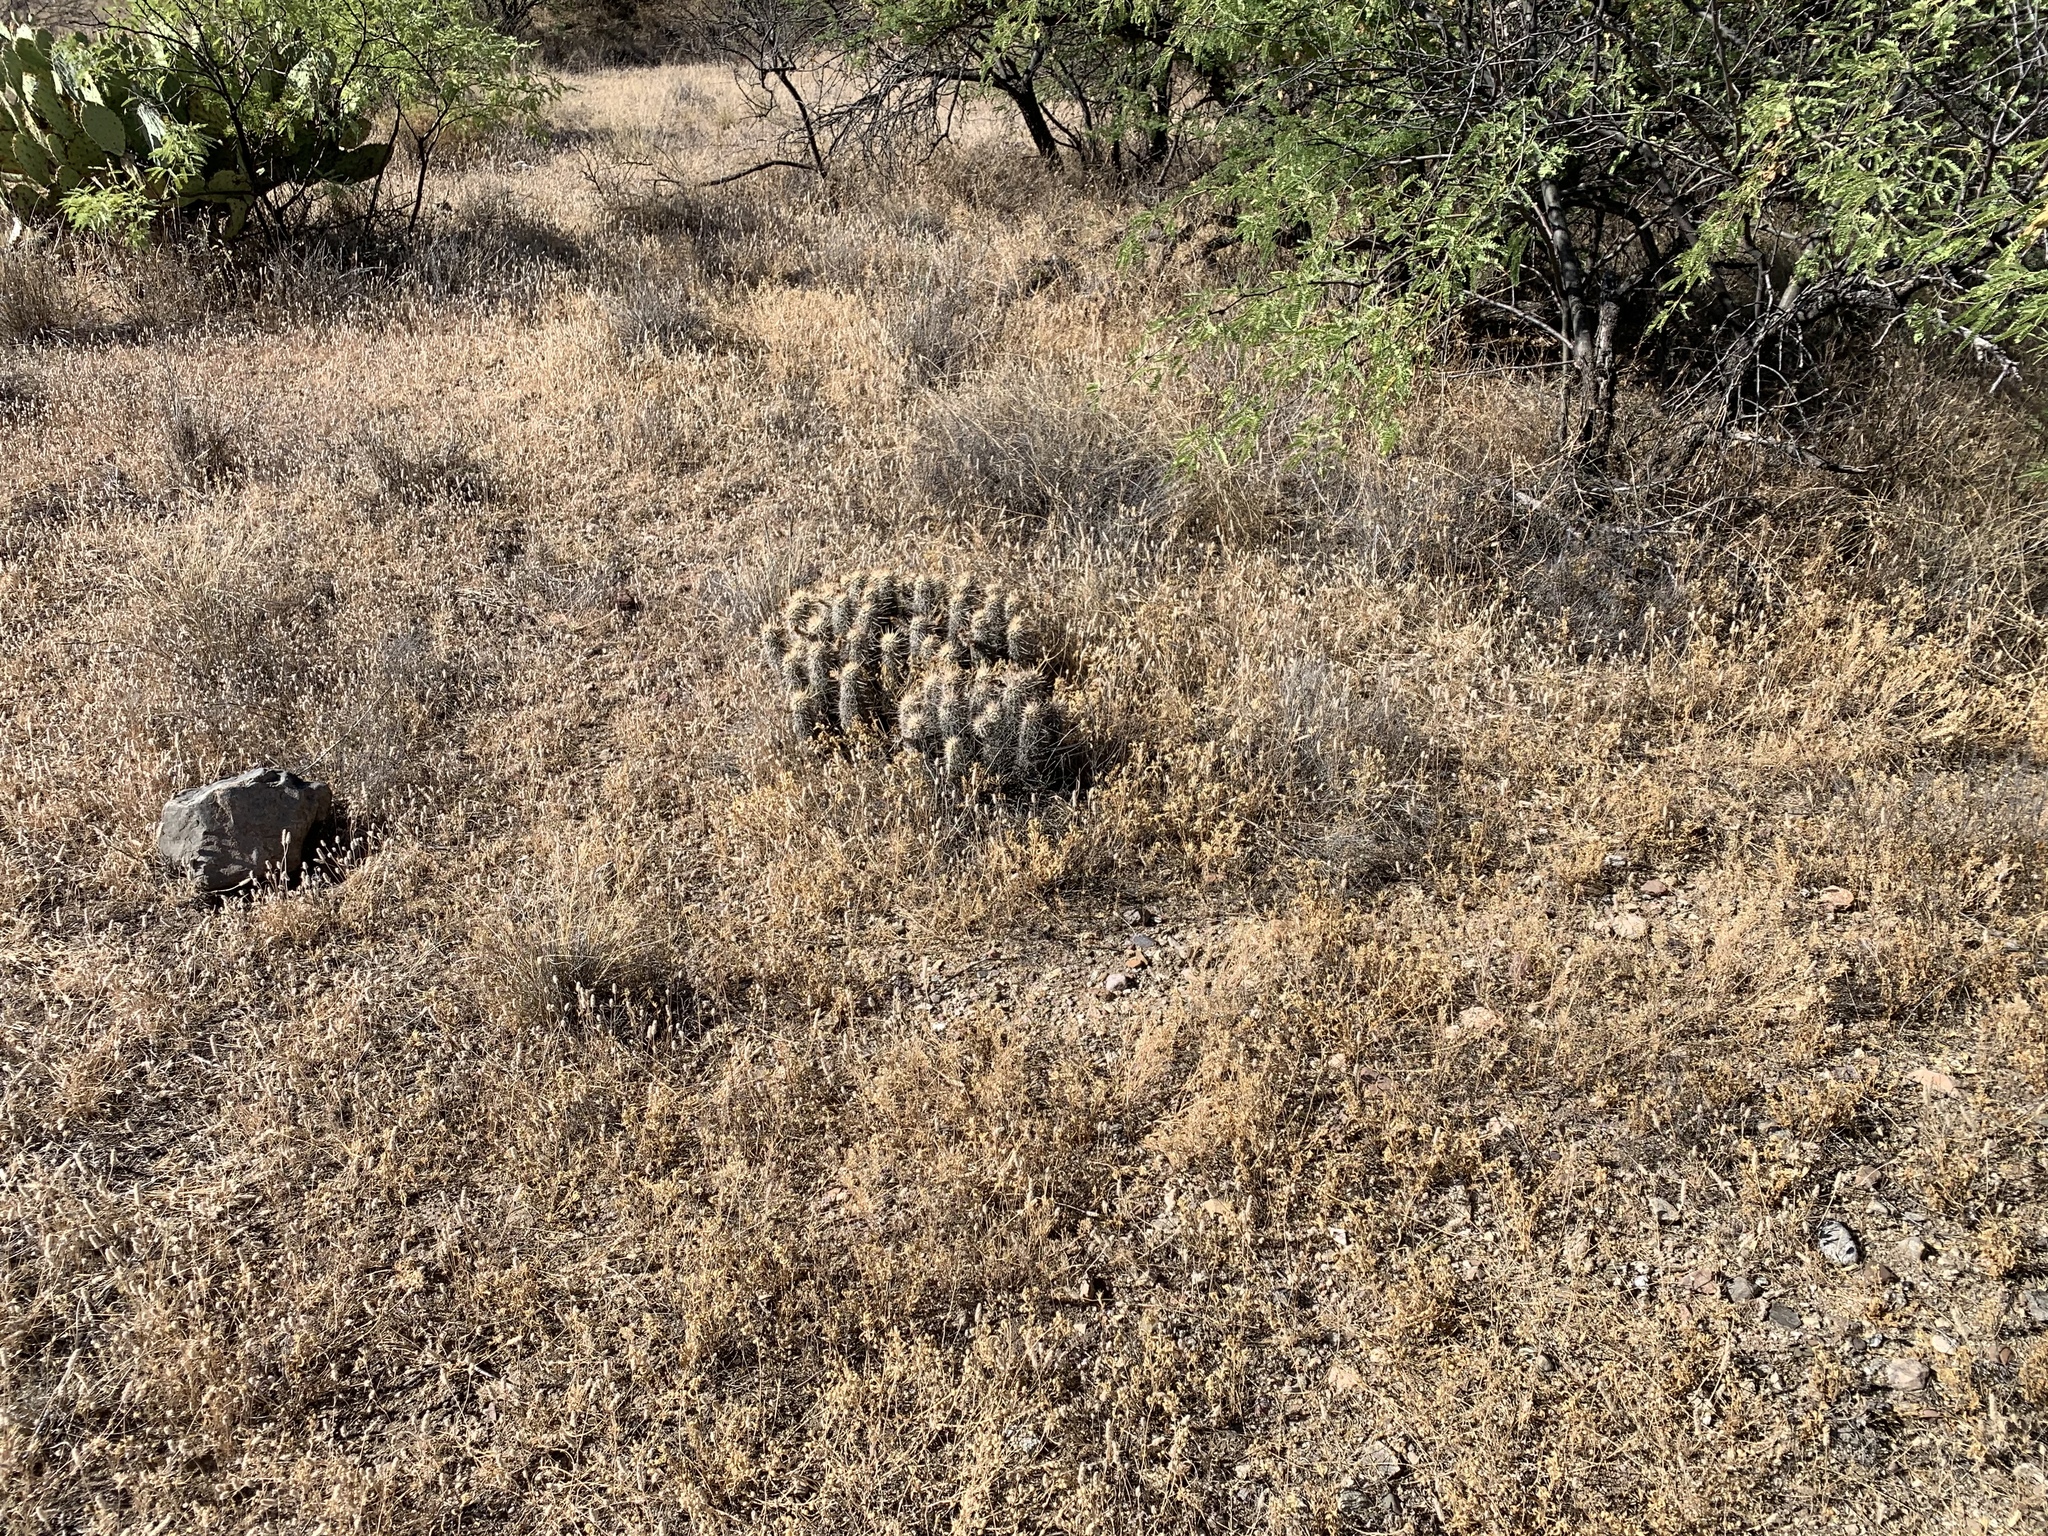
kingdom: Plantae
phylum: Tracheophyta
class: Magnoliopsida
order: Caryophyllales
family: Cactaceae
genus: Echinocereus
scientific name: Echinocereus fasciculatus
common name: Bundle hedgehog
